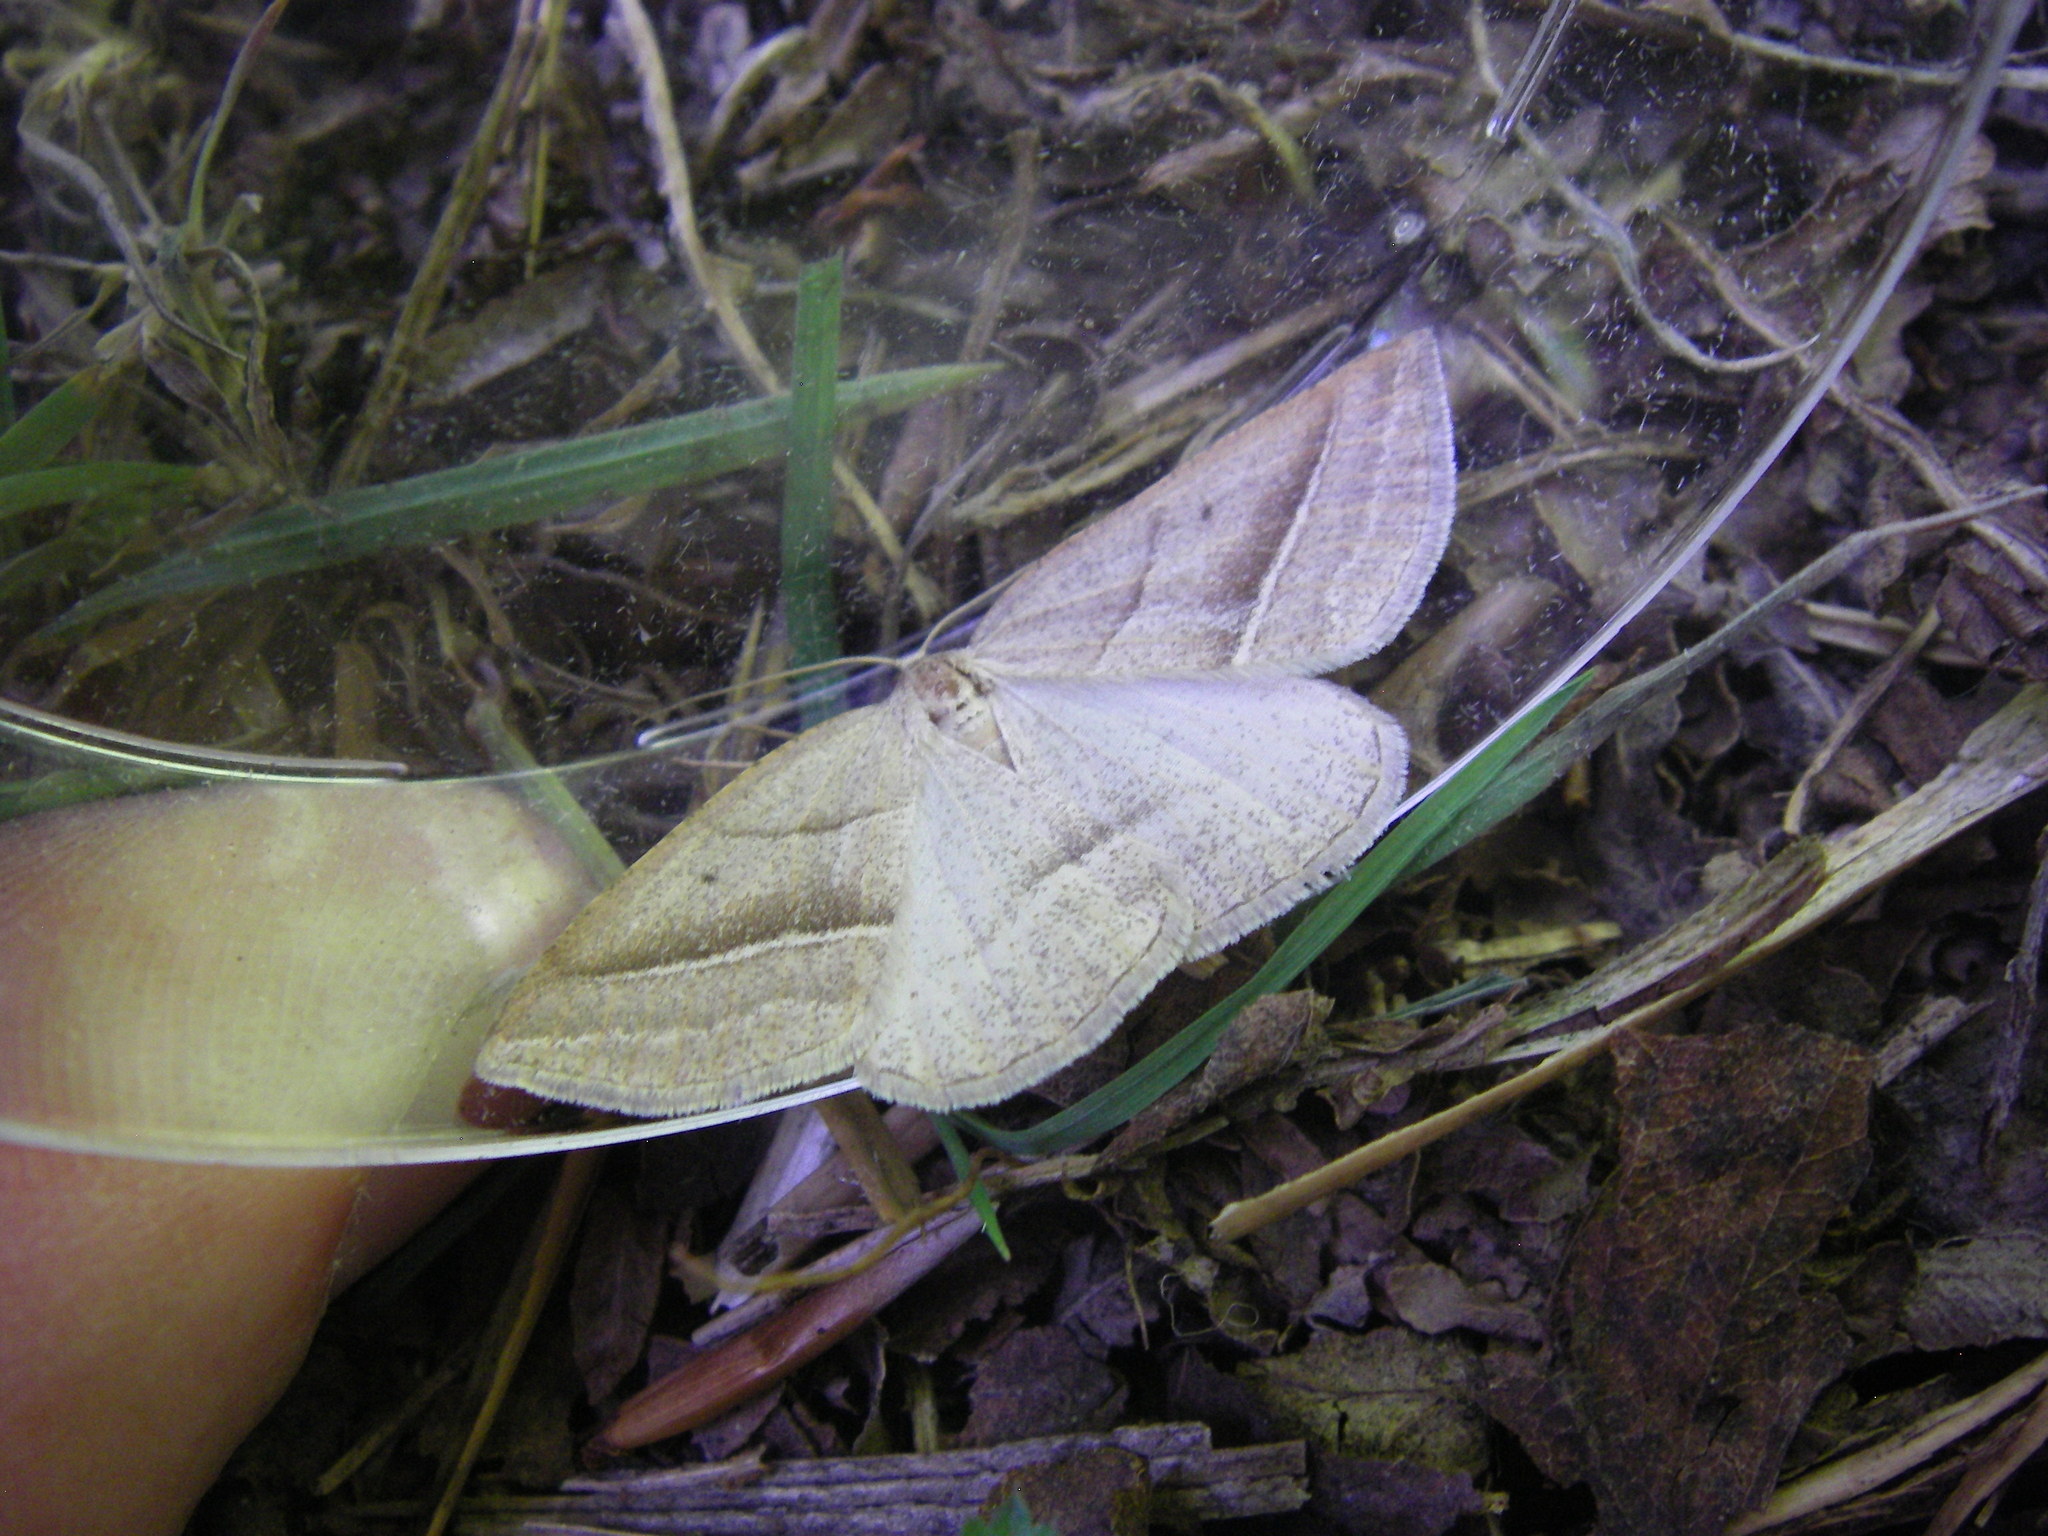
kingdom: Animalia
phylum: Arthropoda
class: Insecta
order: Lepidoptera
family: Pterophoridae
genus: Pterophorus
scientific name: Pterophorus Petrophora chlorosata
